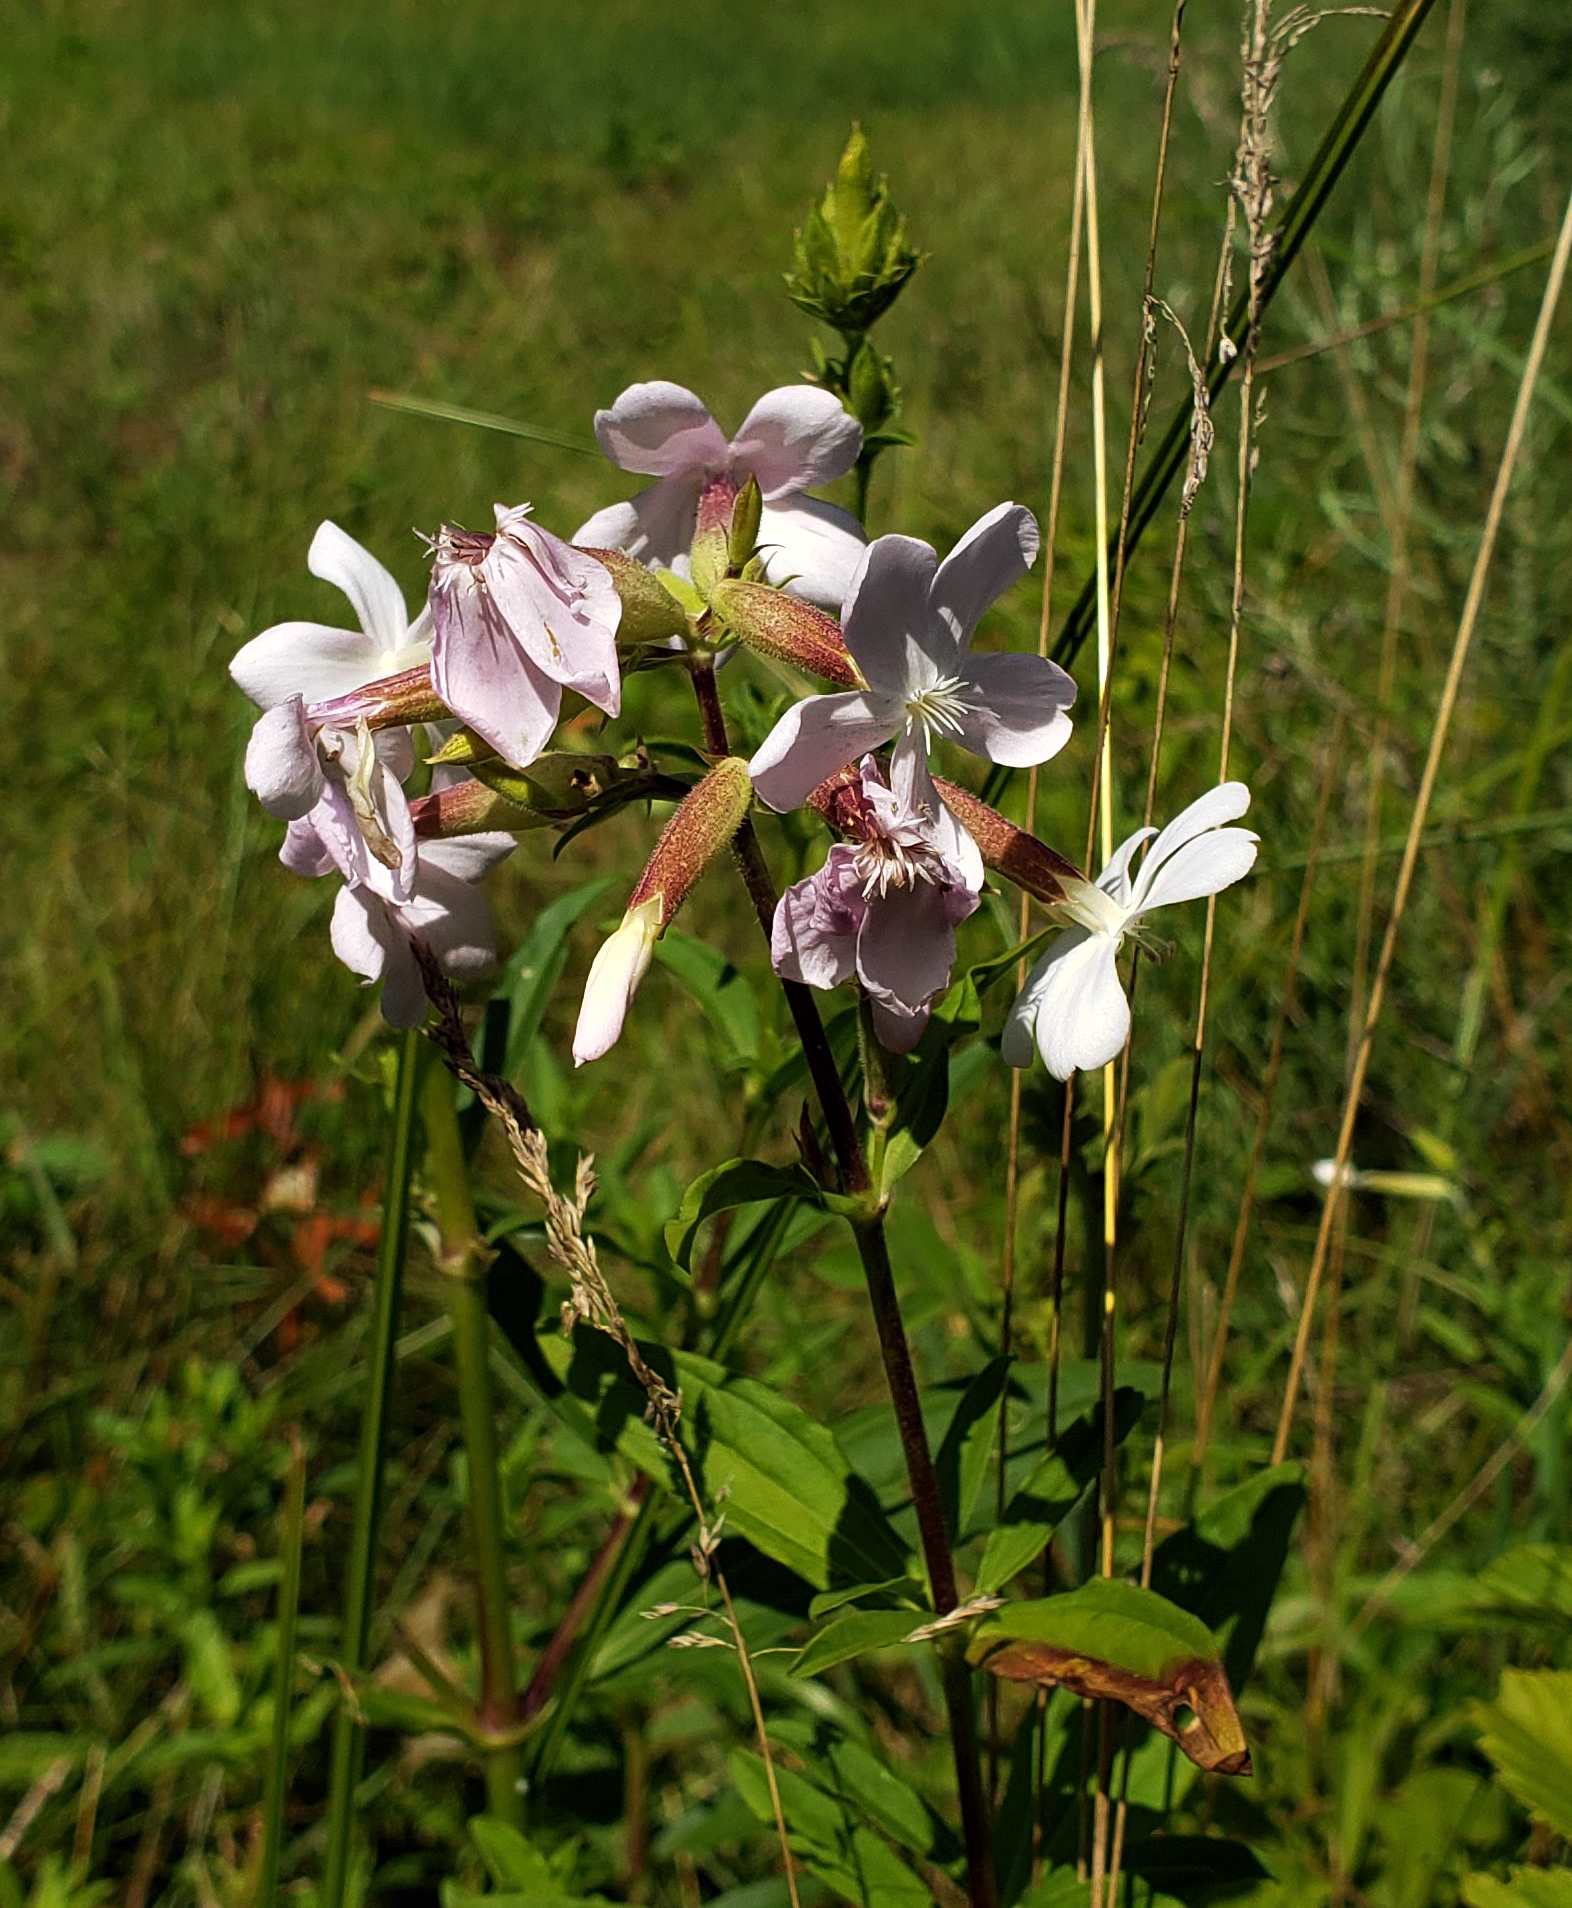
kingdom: Plantae
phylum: Tracheophyta
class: Magnoliopsida
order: Caryophyllales
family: Caryophyllaceae
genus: Saponaria
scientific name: Saponaria officinalis
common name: Soapwort
